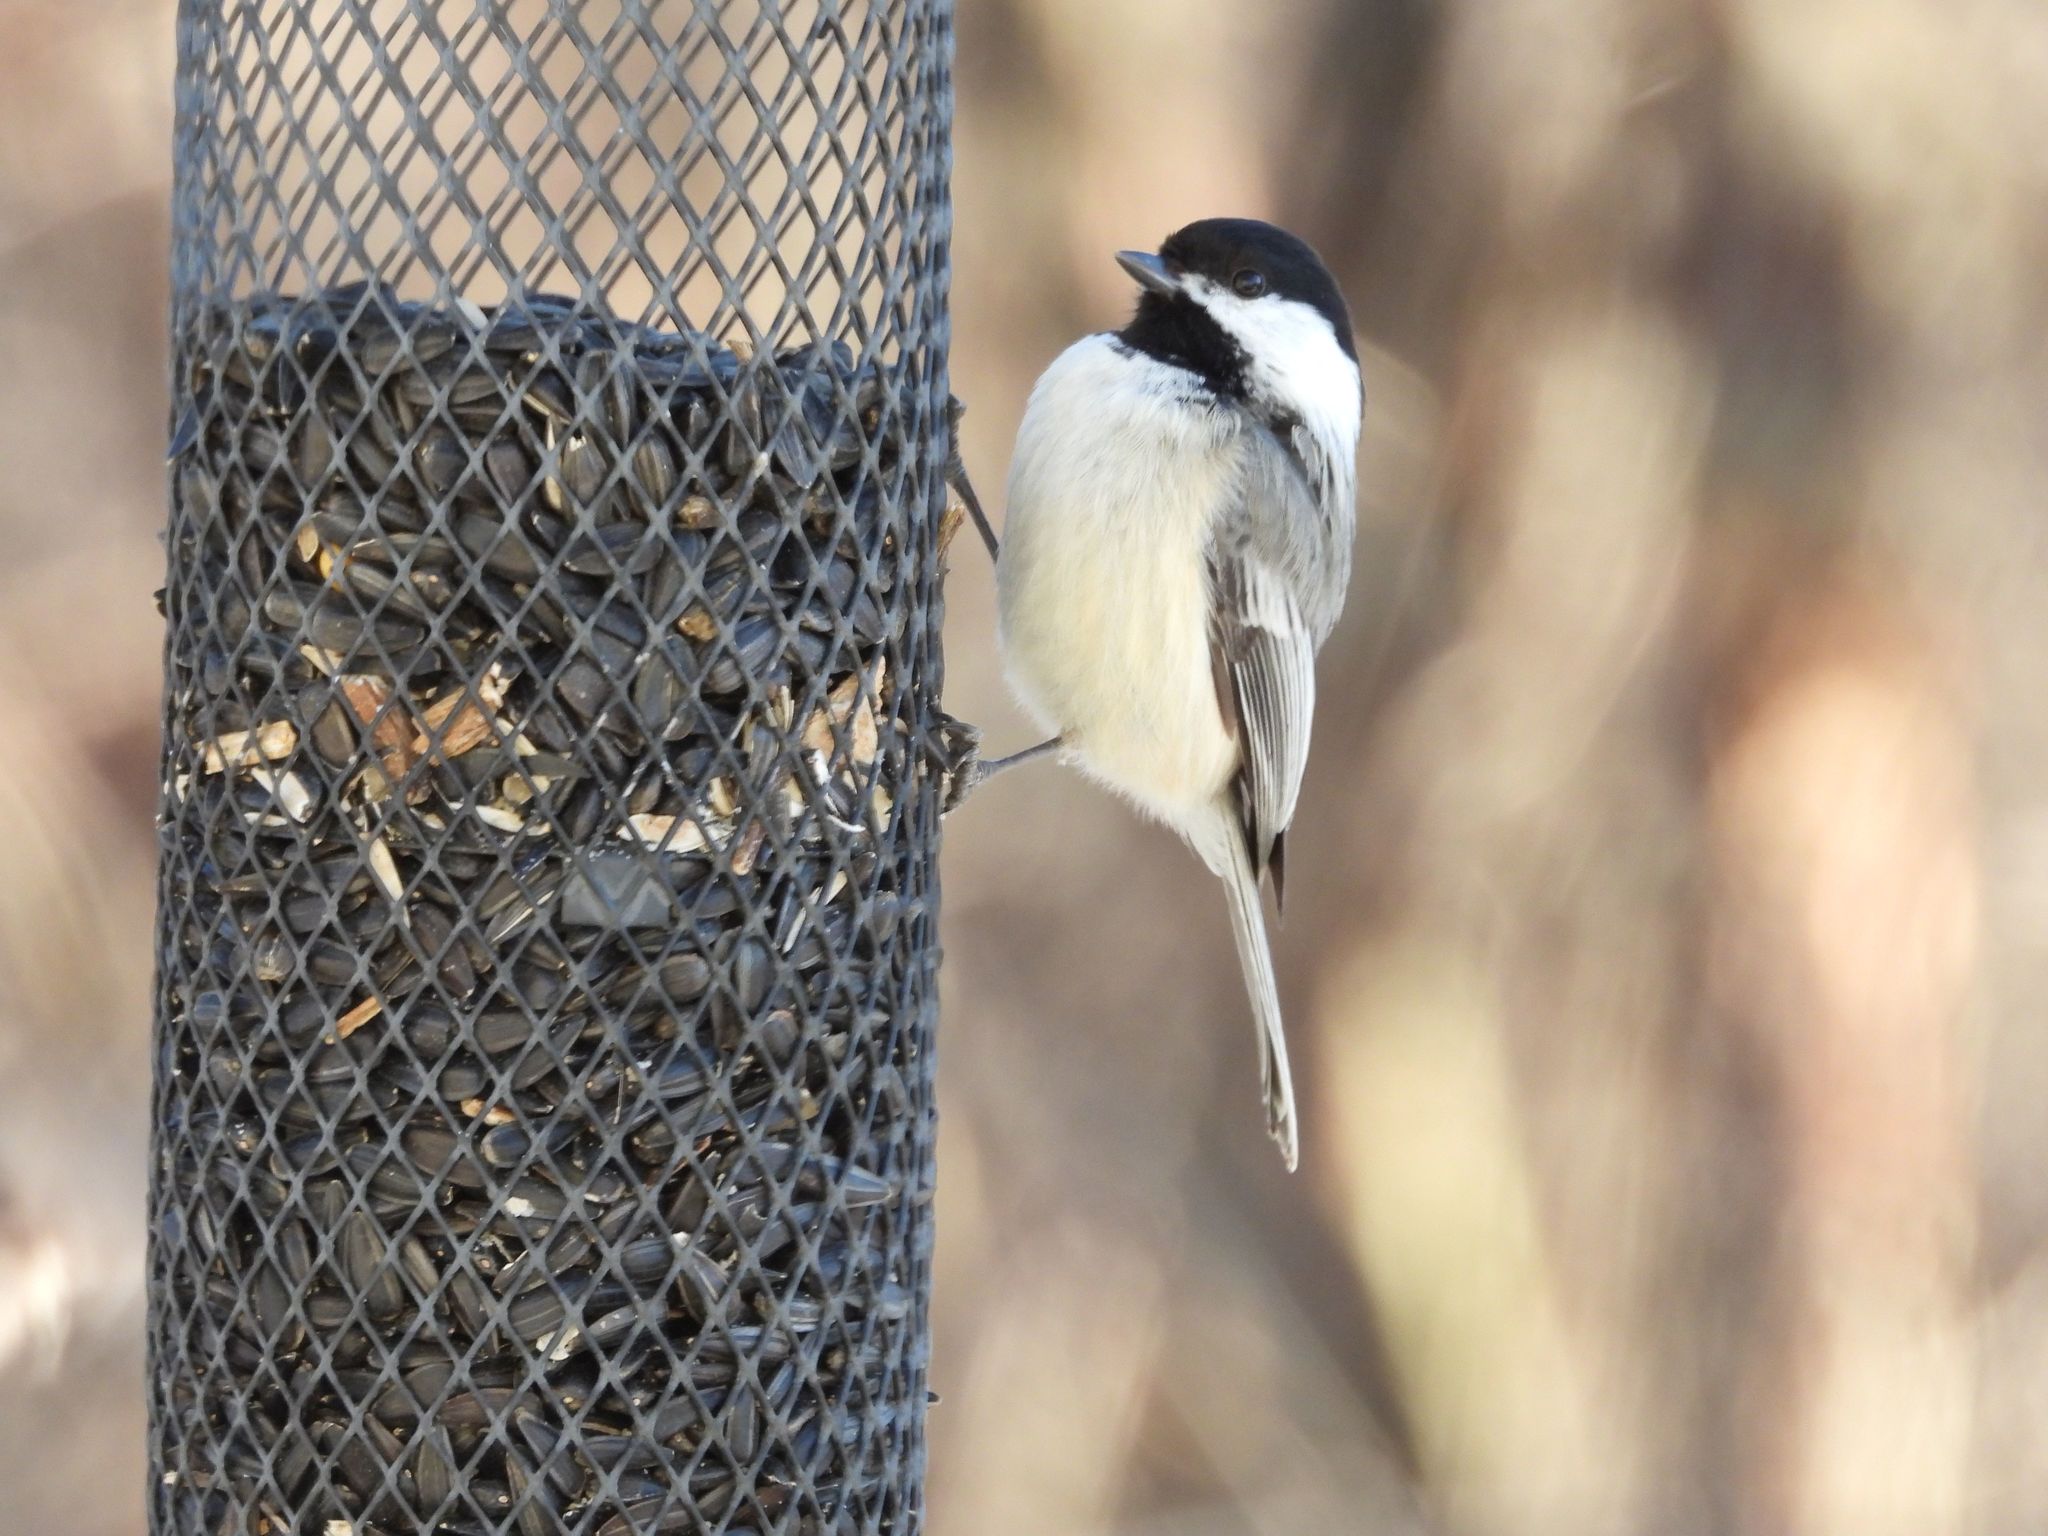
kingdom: Animalia
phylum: Chordata
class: Aves
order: Passeriformes
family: Paridae
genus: Poecile
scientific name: Poecile atricapillus
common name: Black-capped chickadee
